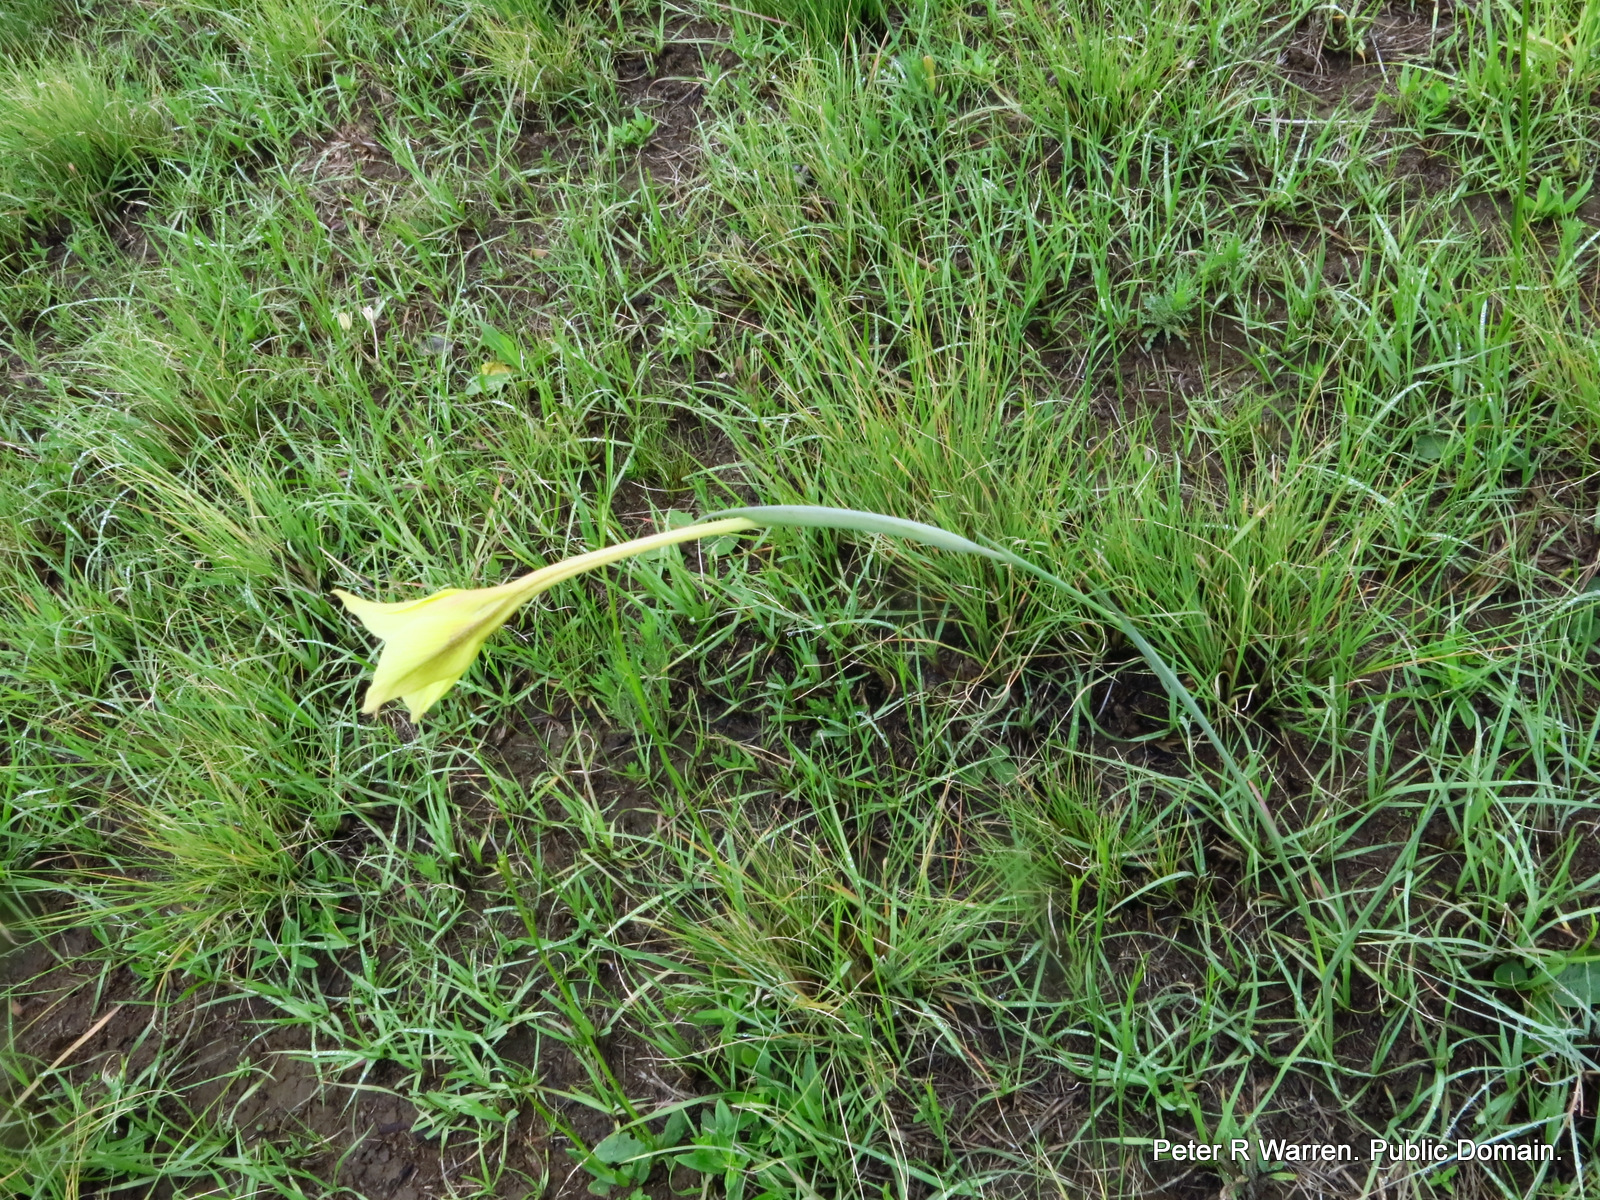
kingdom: Plantae
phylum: Tracheophyta
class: Liliopsida
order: Asparagales
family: Iridaceae
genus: Gladiolus
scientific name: Gladiolus longicollis
